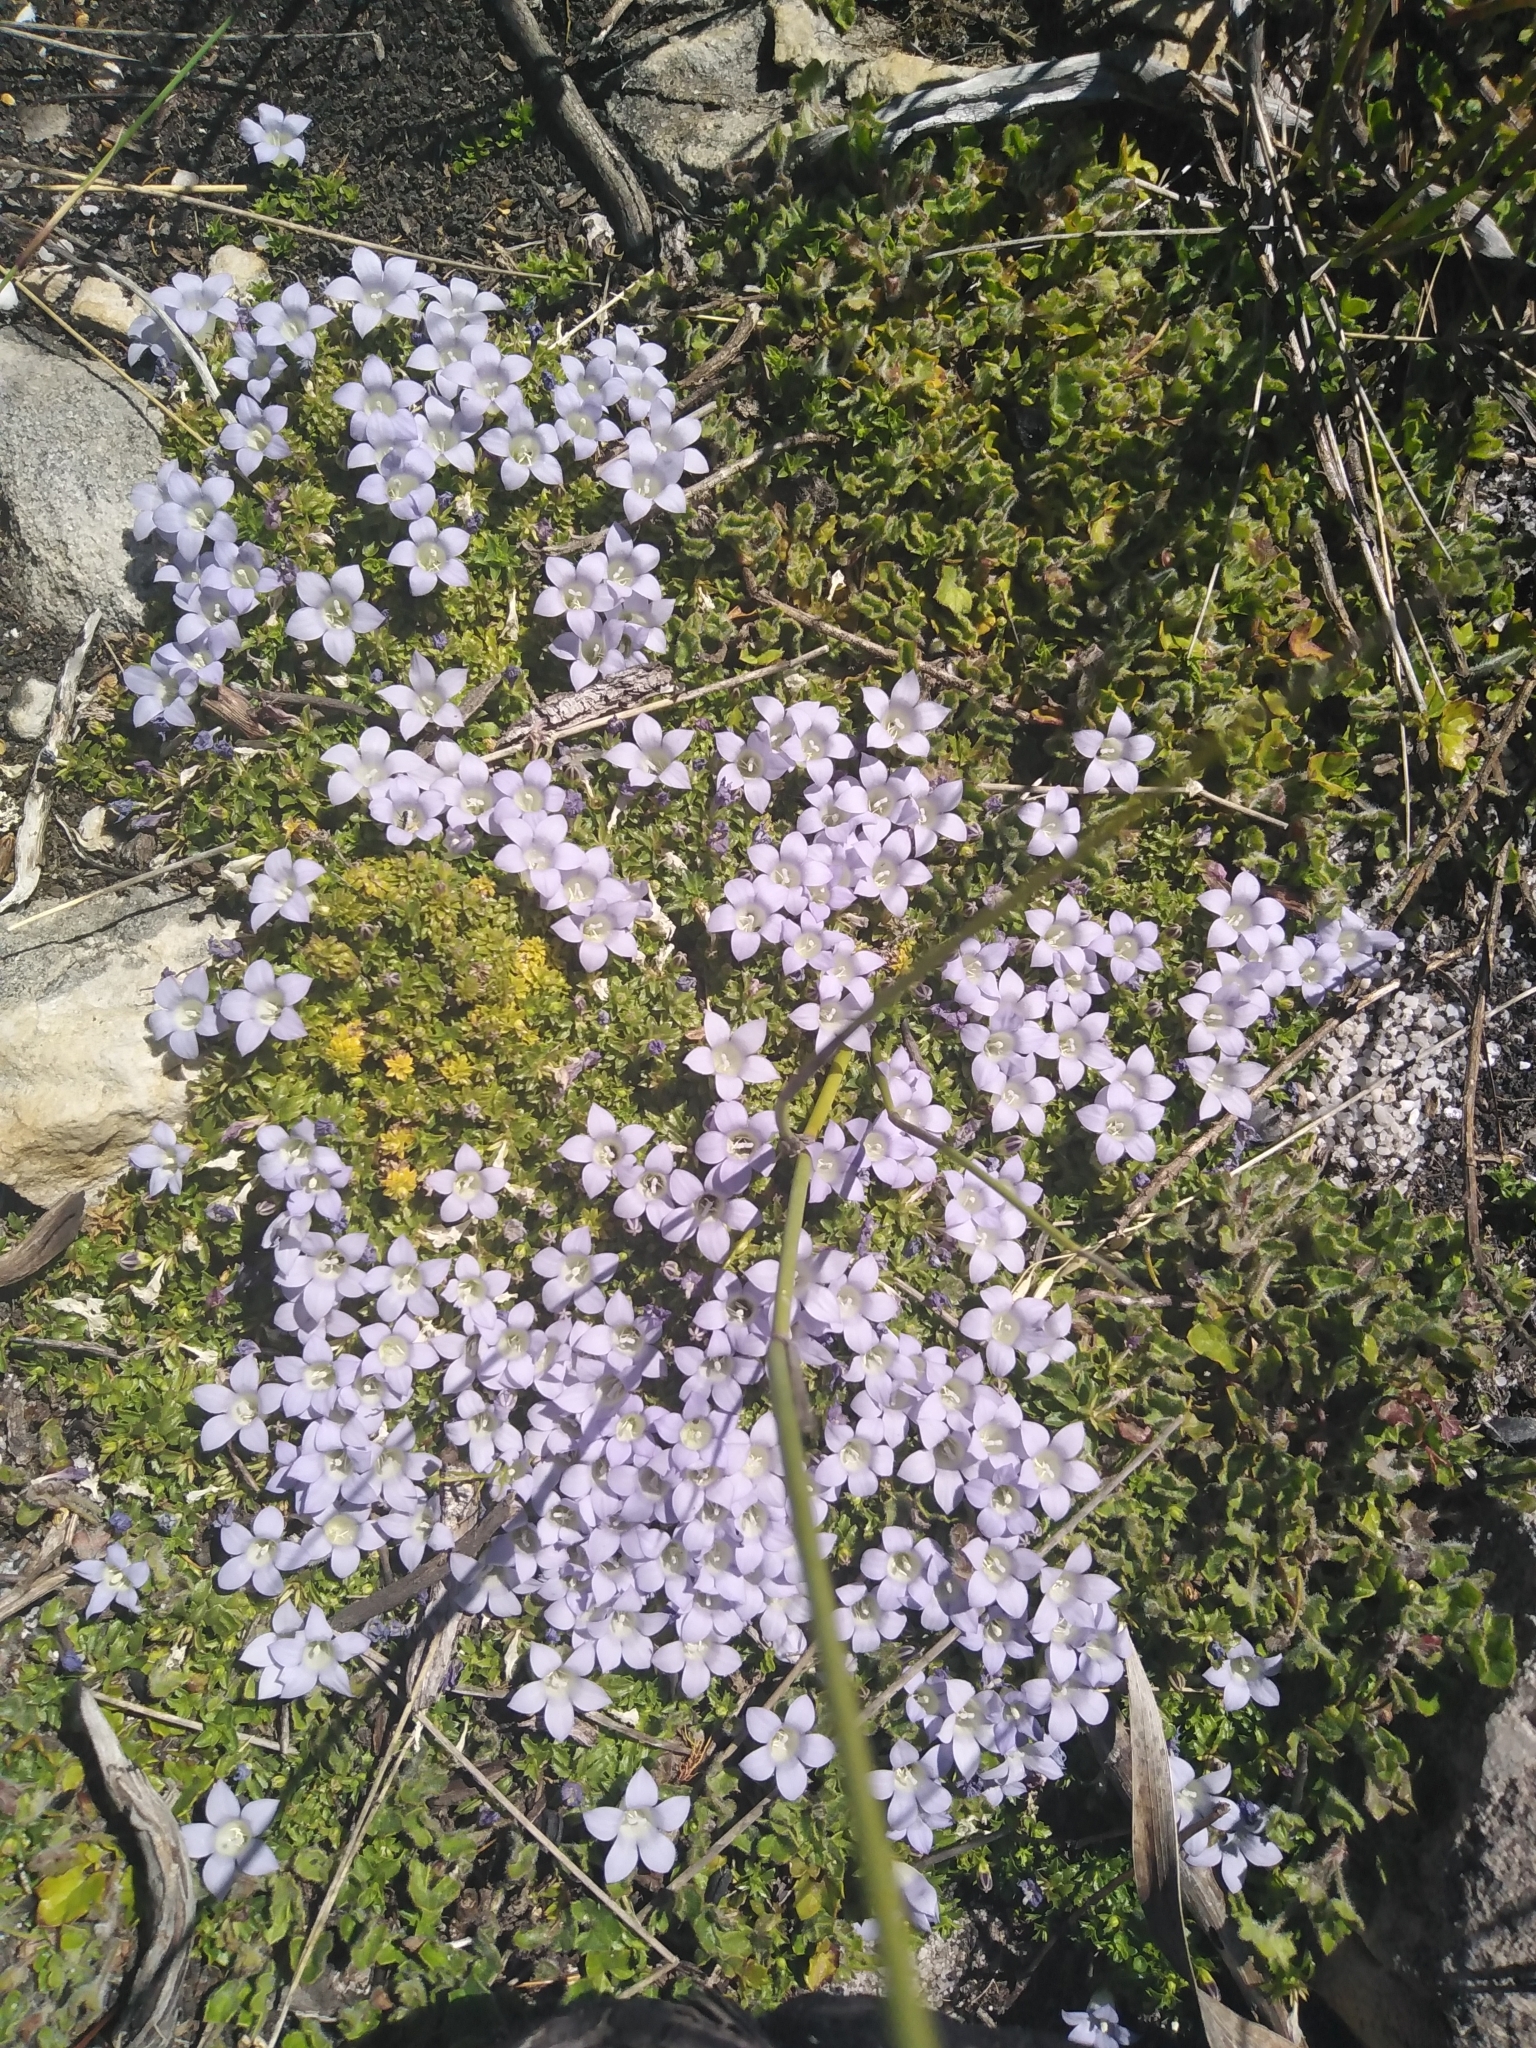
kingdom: Plantae
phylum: Tracheophyta
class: Magnoliopsida
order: Asterales
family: Campanulaceae
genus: Roella
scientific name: Roella muscosa
